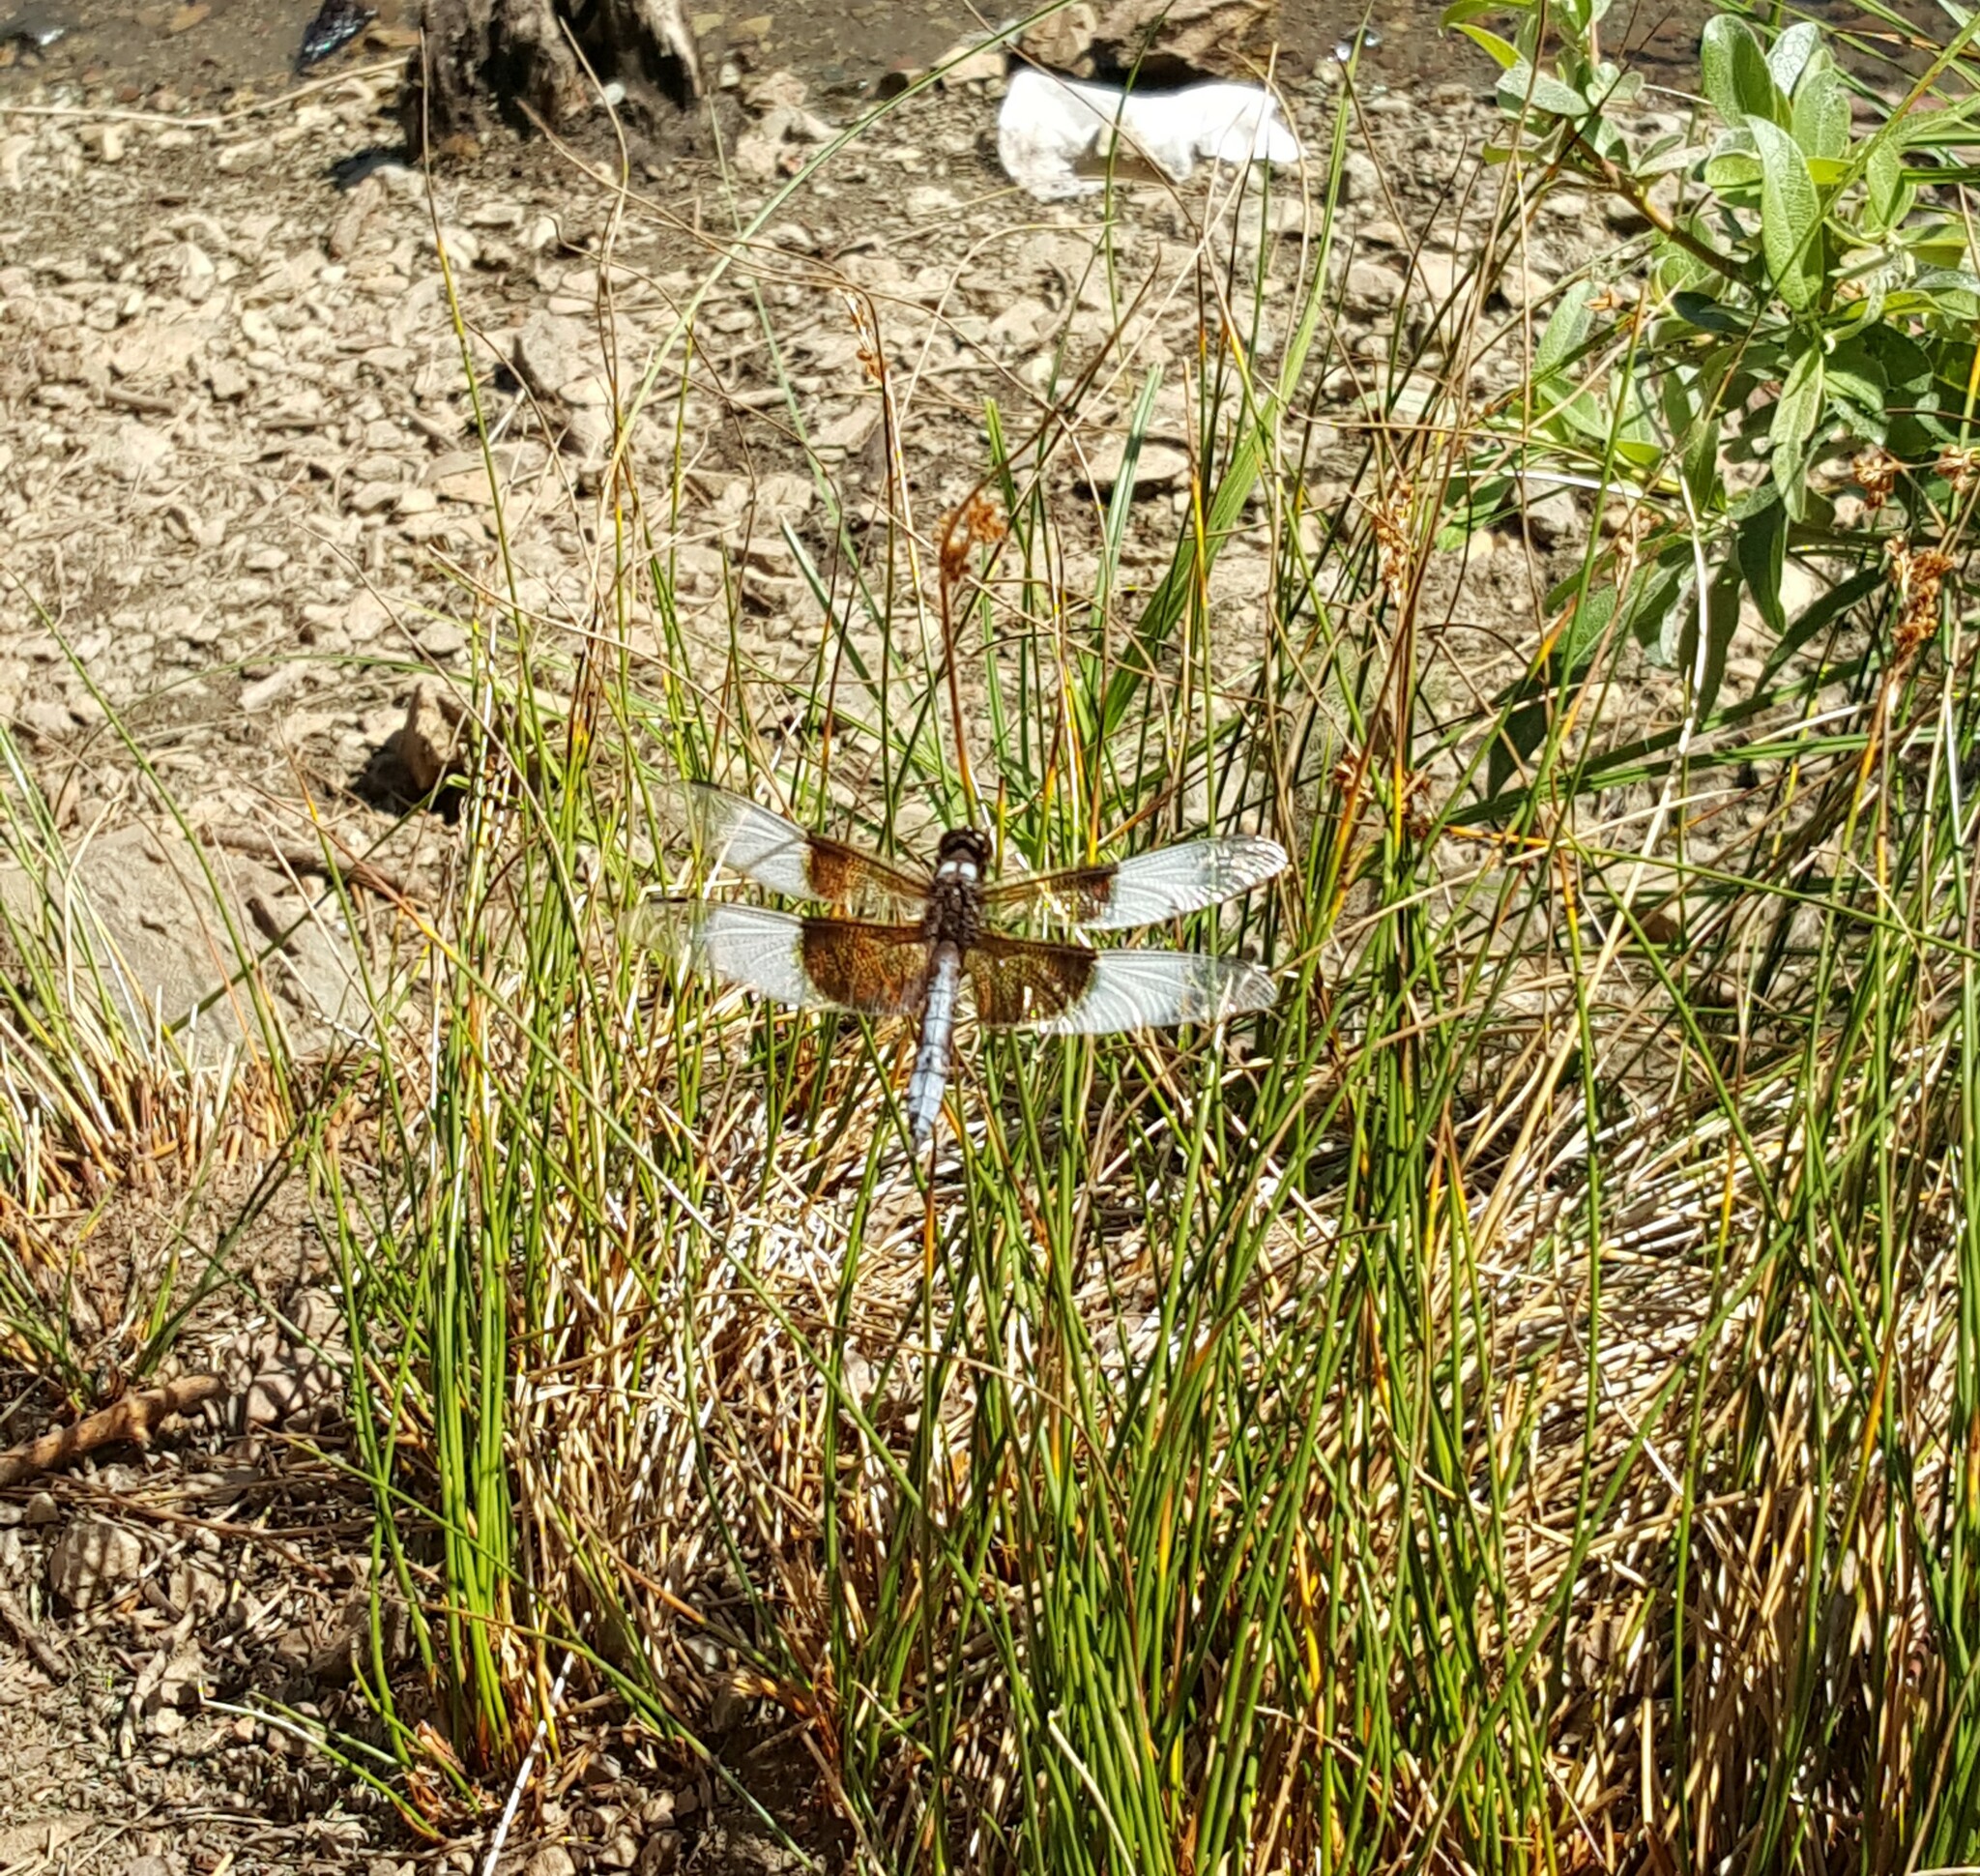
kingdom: Animalia
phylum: Arthropoda
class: Insecta
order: Odonata
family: Libellulidae
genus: Libellula
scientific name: Libellula luctuosa
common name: Widow skimmer
